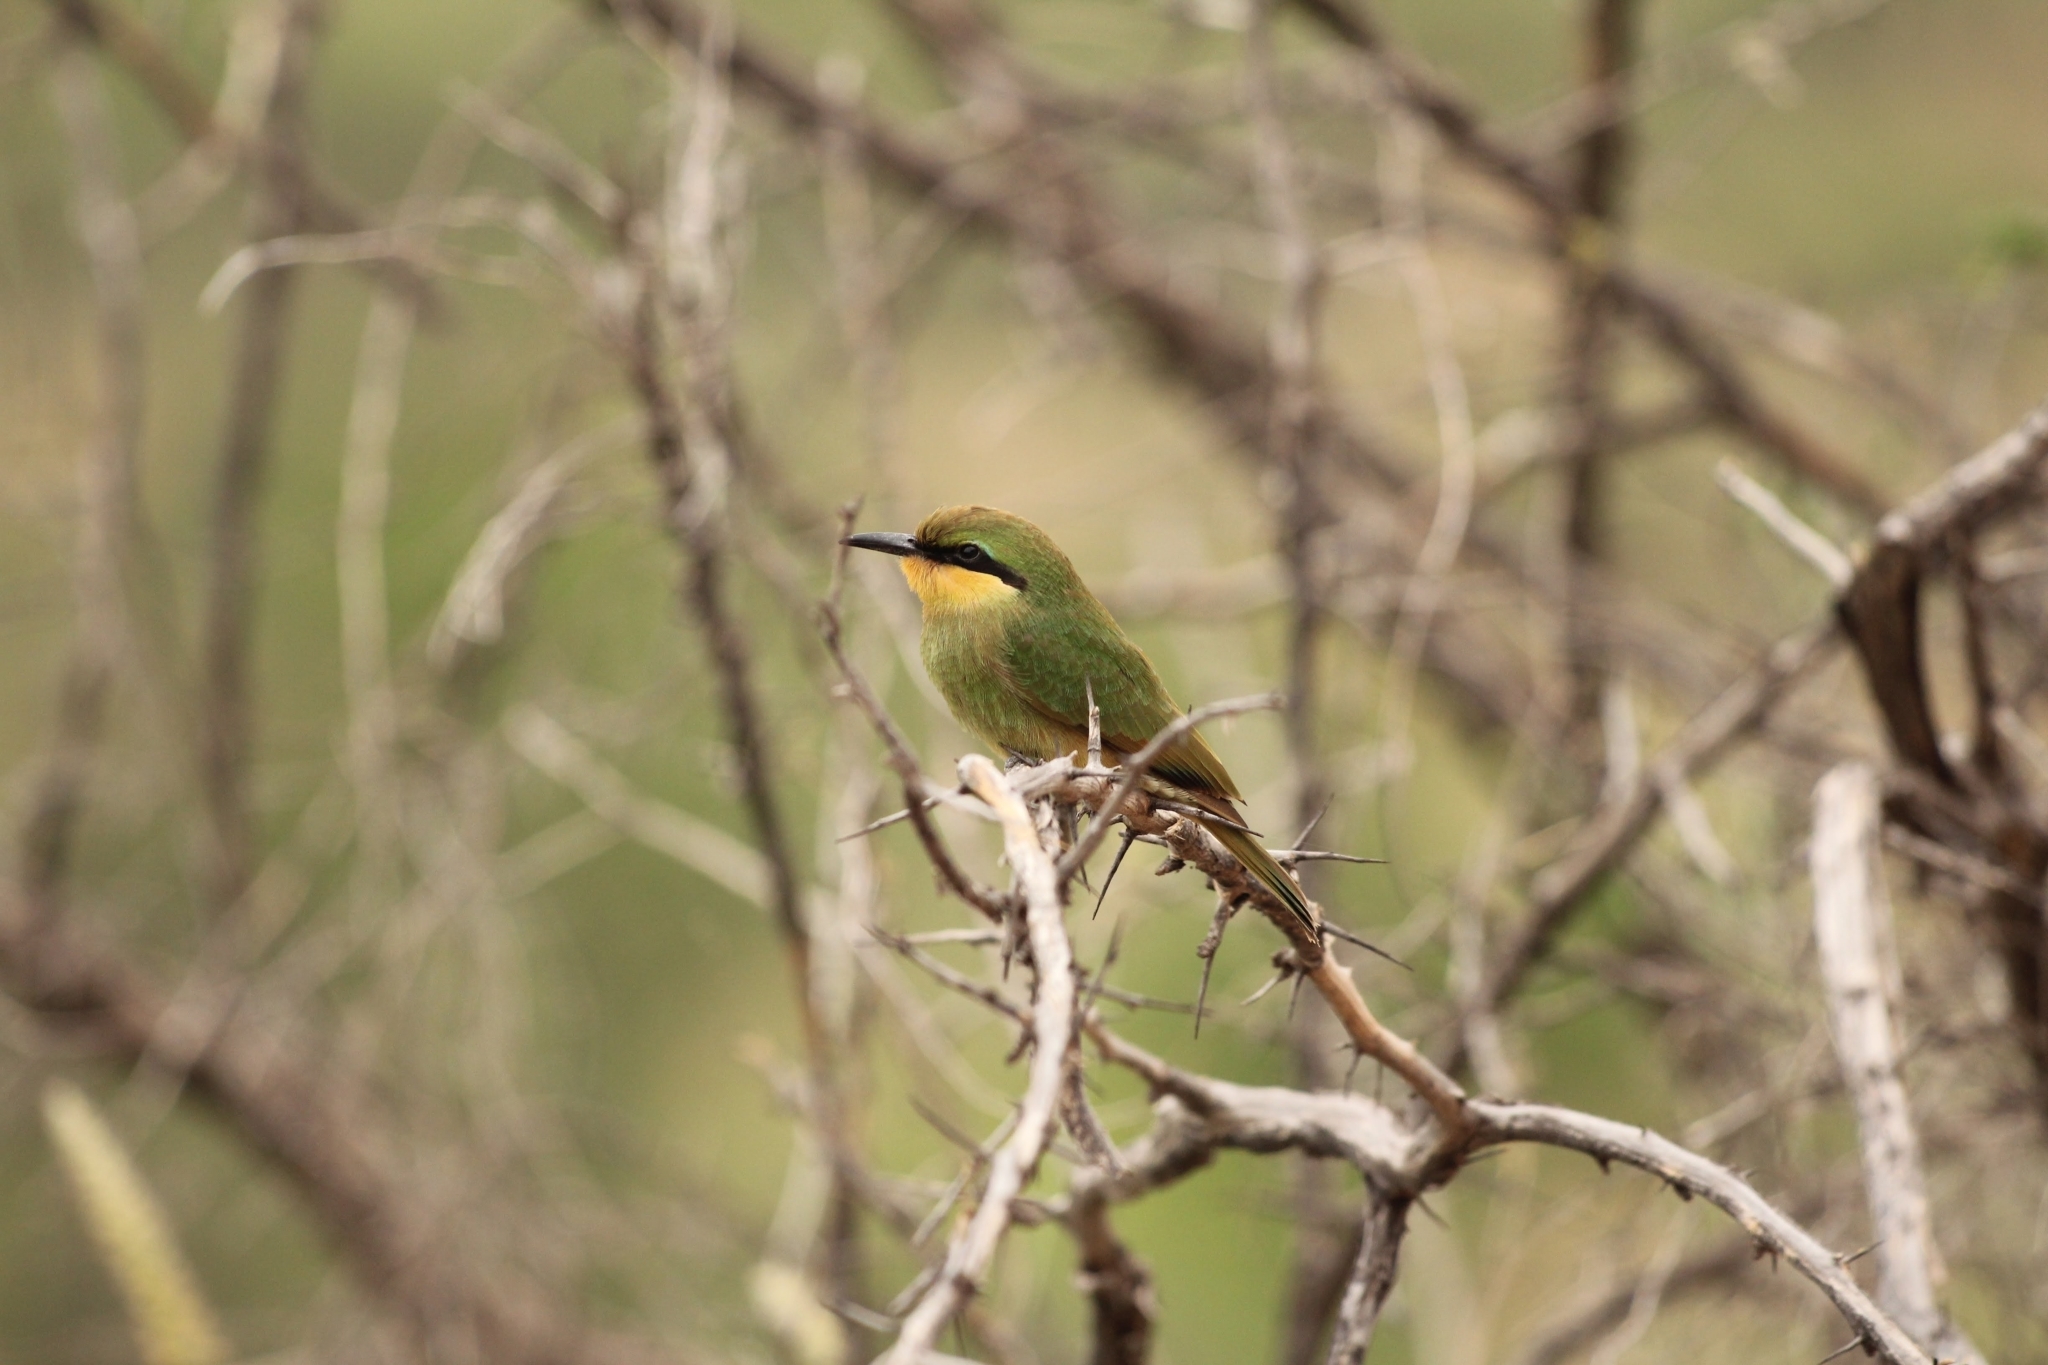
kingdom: Animalia
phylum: Chordata
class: Aves
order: Coraciiformes
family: Meropidae
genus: Merops
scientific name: Merops pusillus
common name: Little bee-eater
